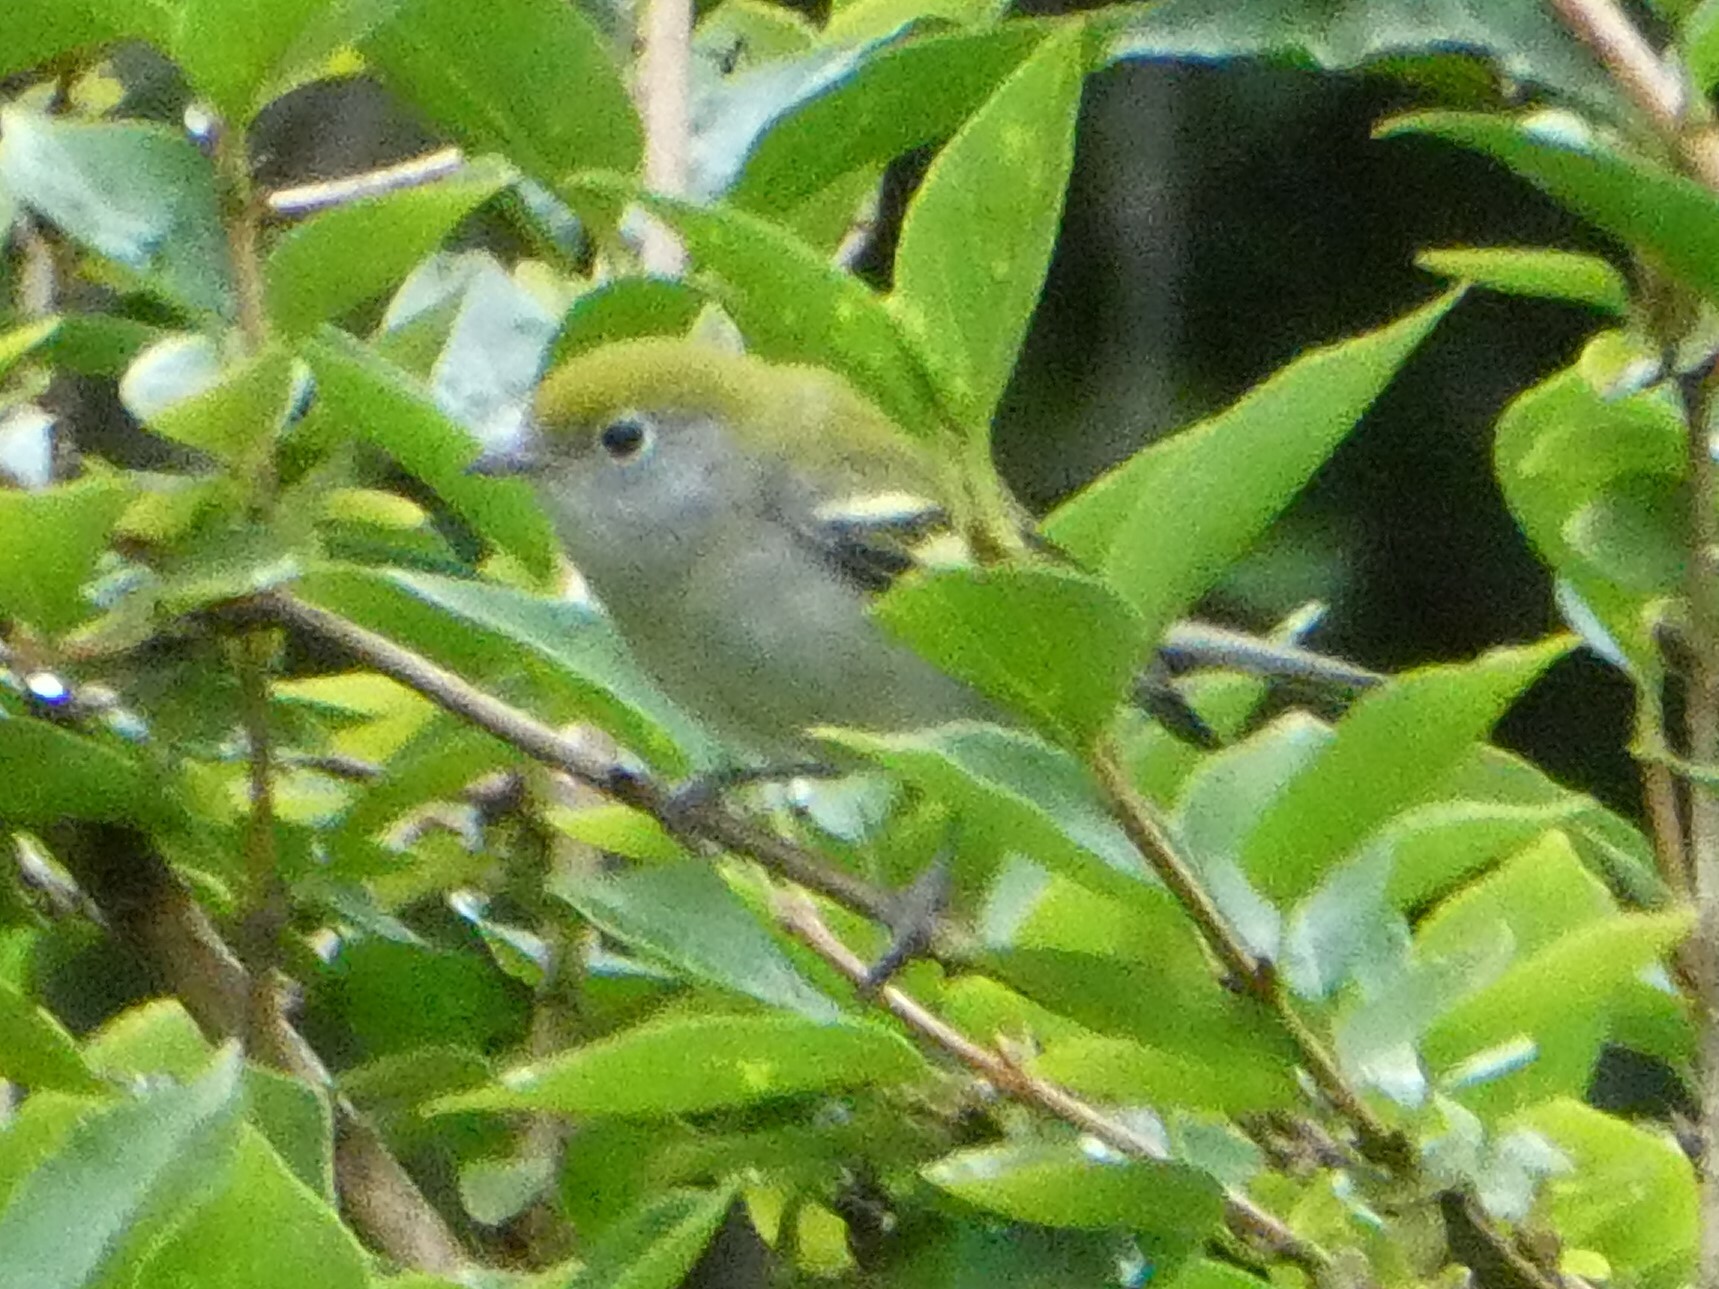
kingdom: Animalia
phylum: Chordata
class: Aves
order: Passeriformes
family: Parulidae
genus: Setophaga
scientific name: Setophaga pensylvanica
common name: Chestnut-sided warbler
